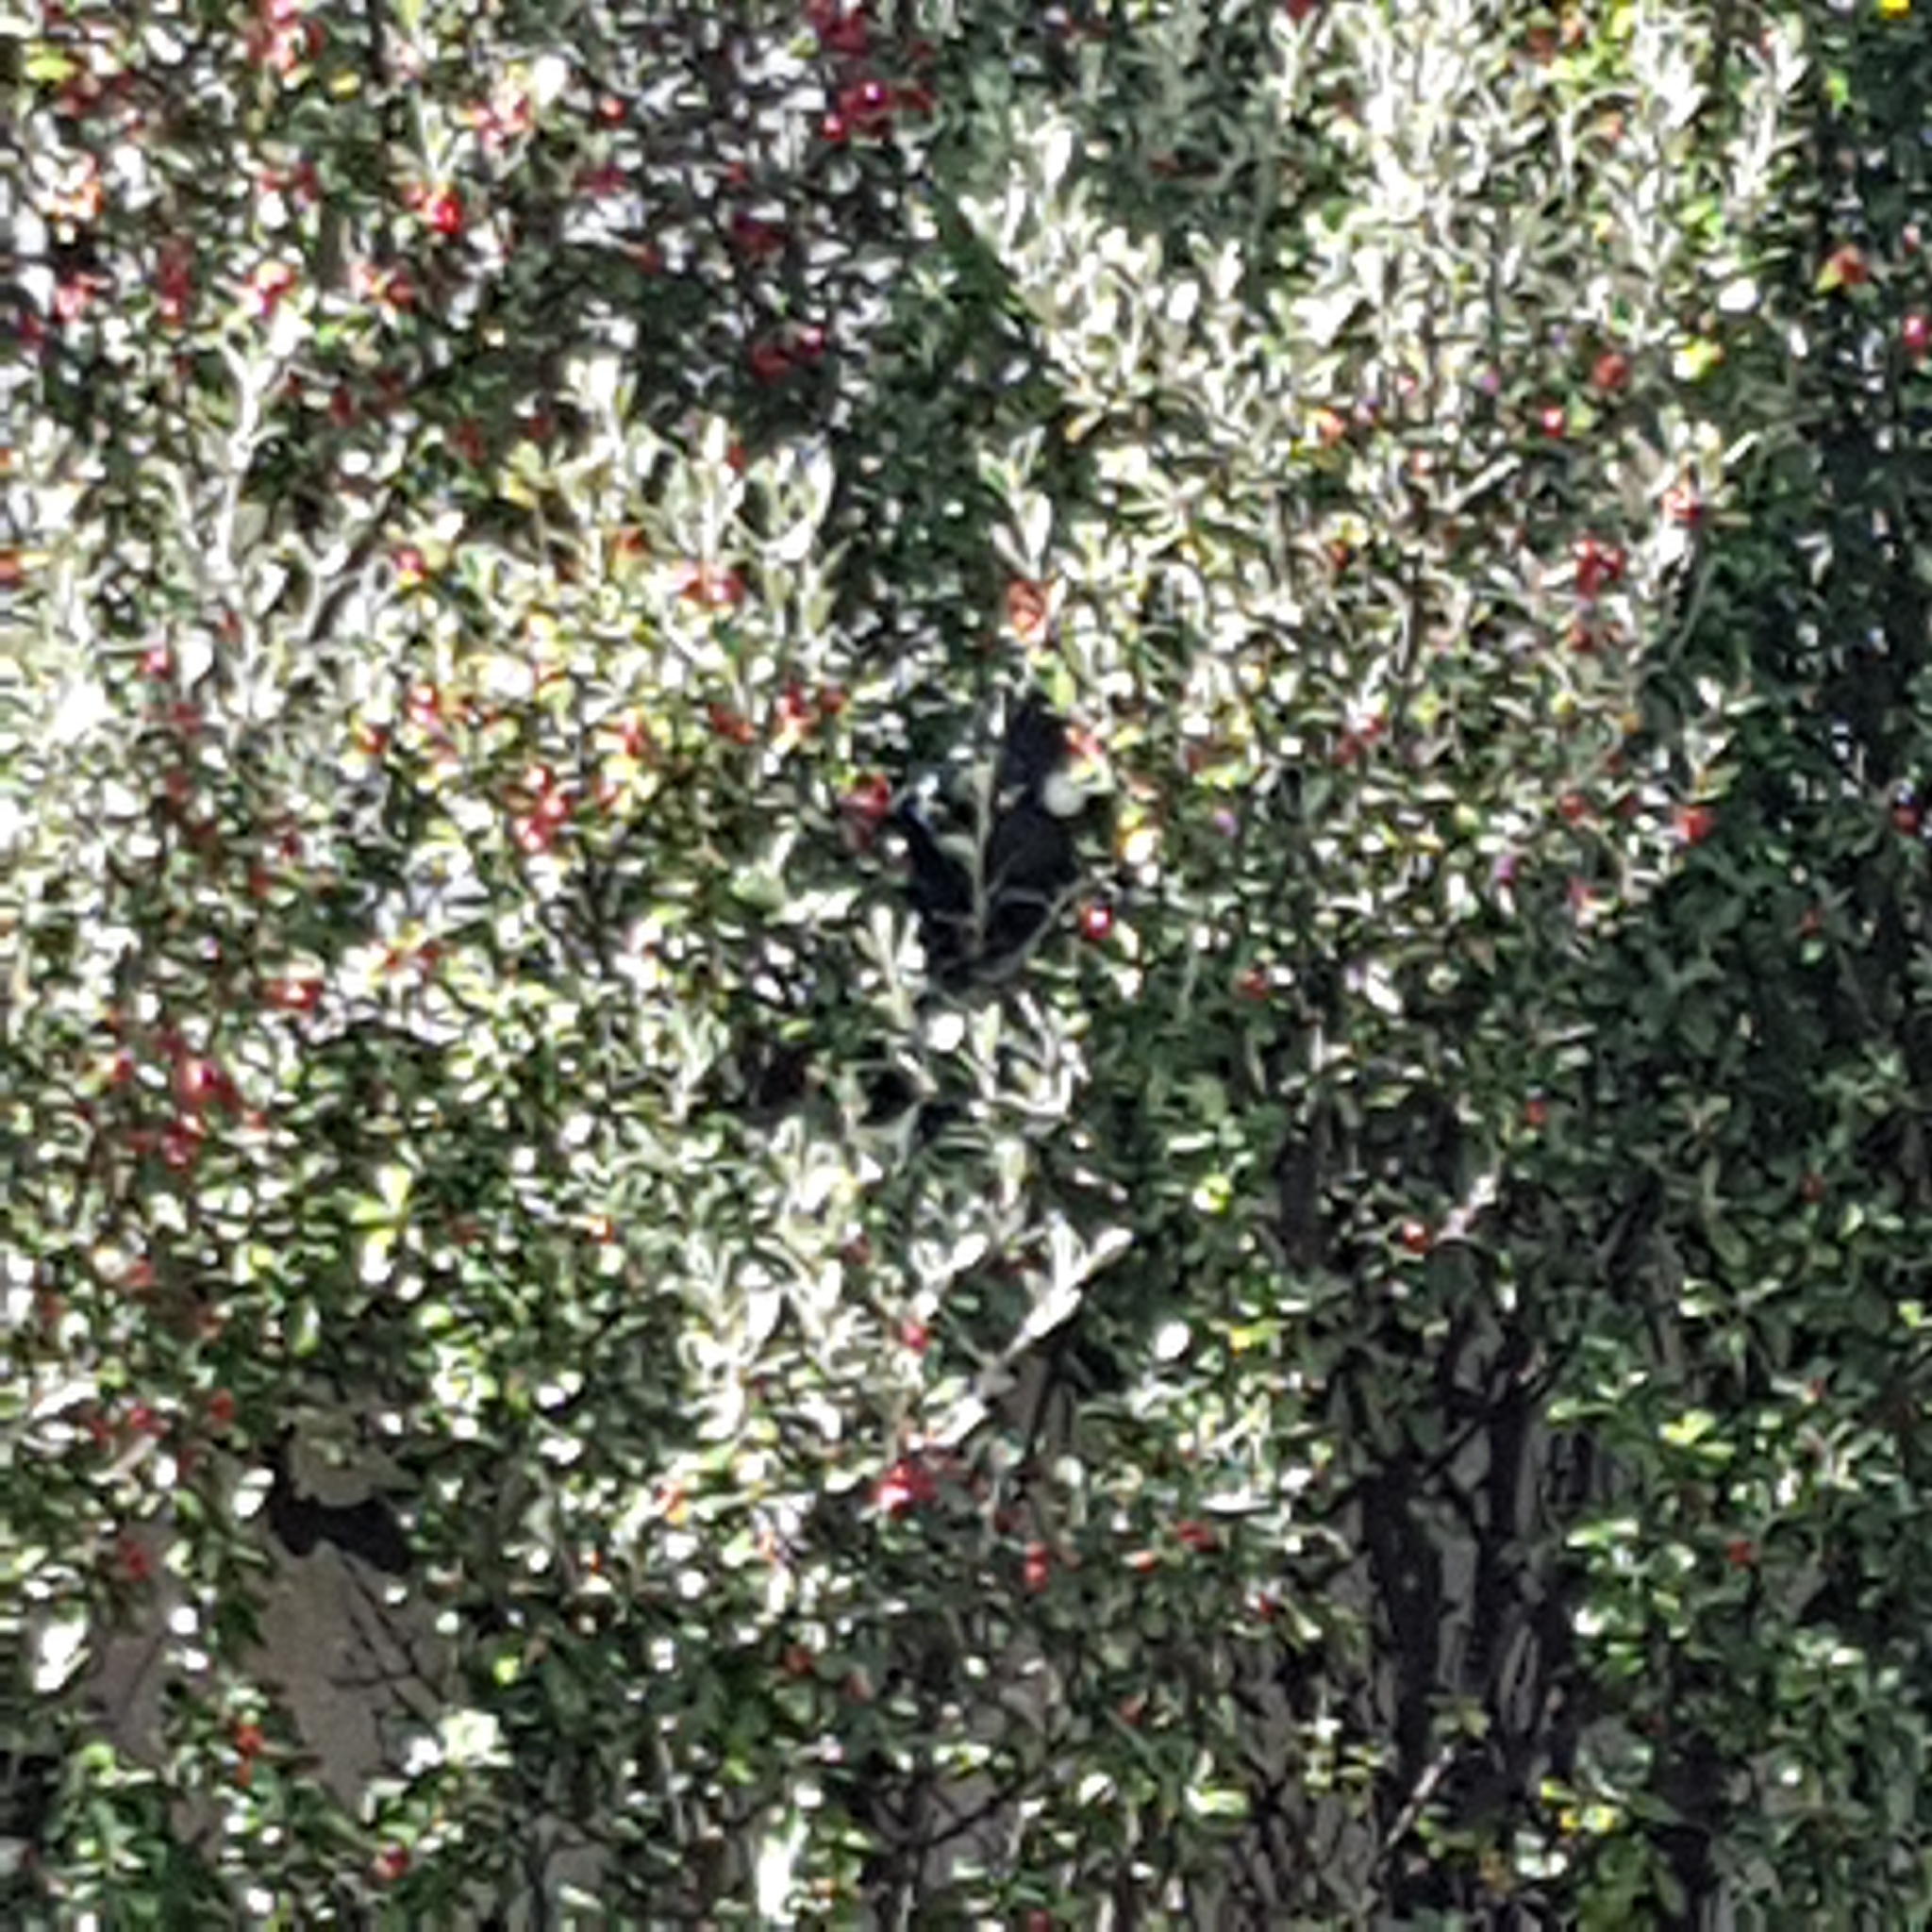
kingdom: Animalia
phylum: Chordata
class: Aves
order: Passeriformes
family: Meliphagidae
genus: Prosthemadera
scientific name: Prosthemadera novaeseelandiae
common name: Tui
